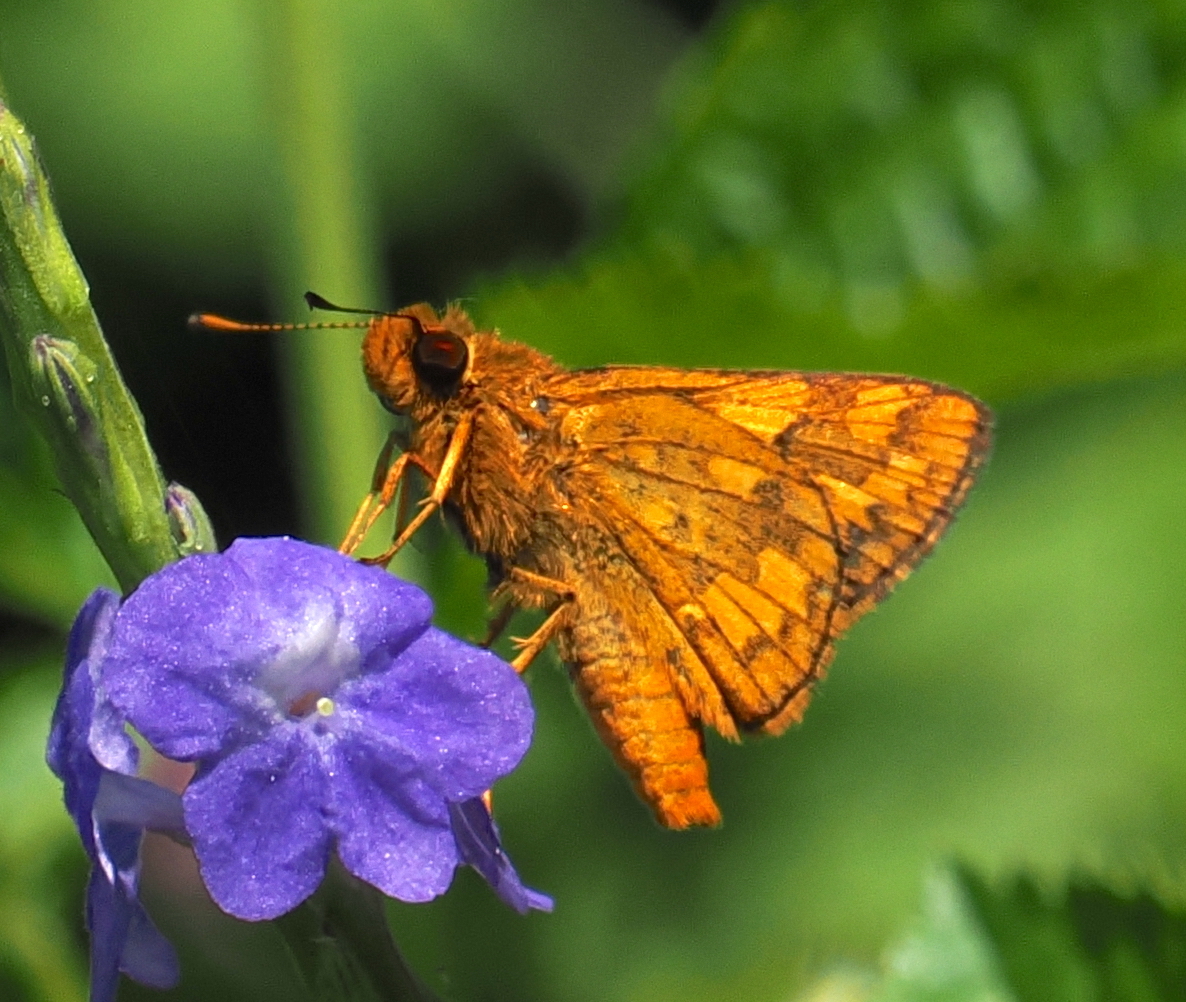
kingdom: Animalia
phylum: Arthropoda
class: Insecta
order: Lepidoptera
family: Hesperiidae
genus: Potanthus
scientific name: Potanthus omaha
